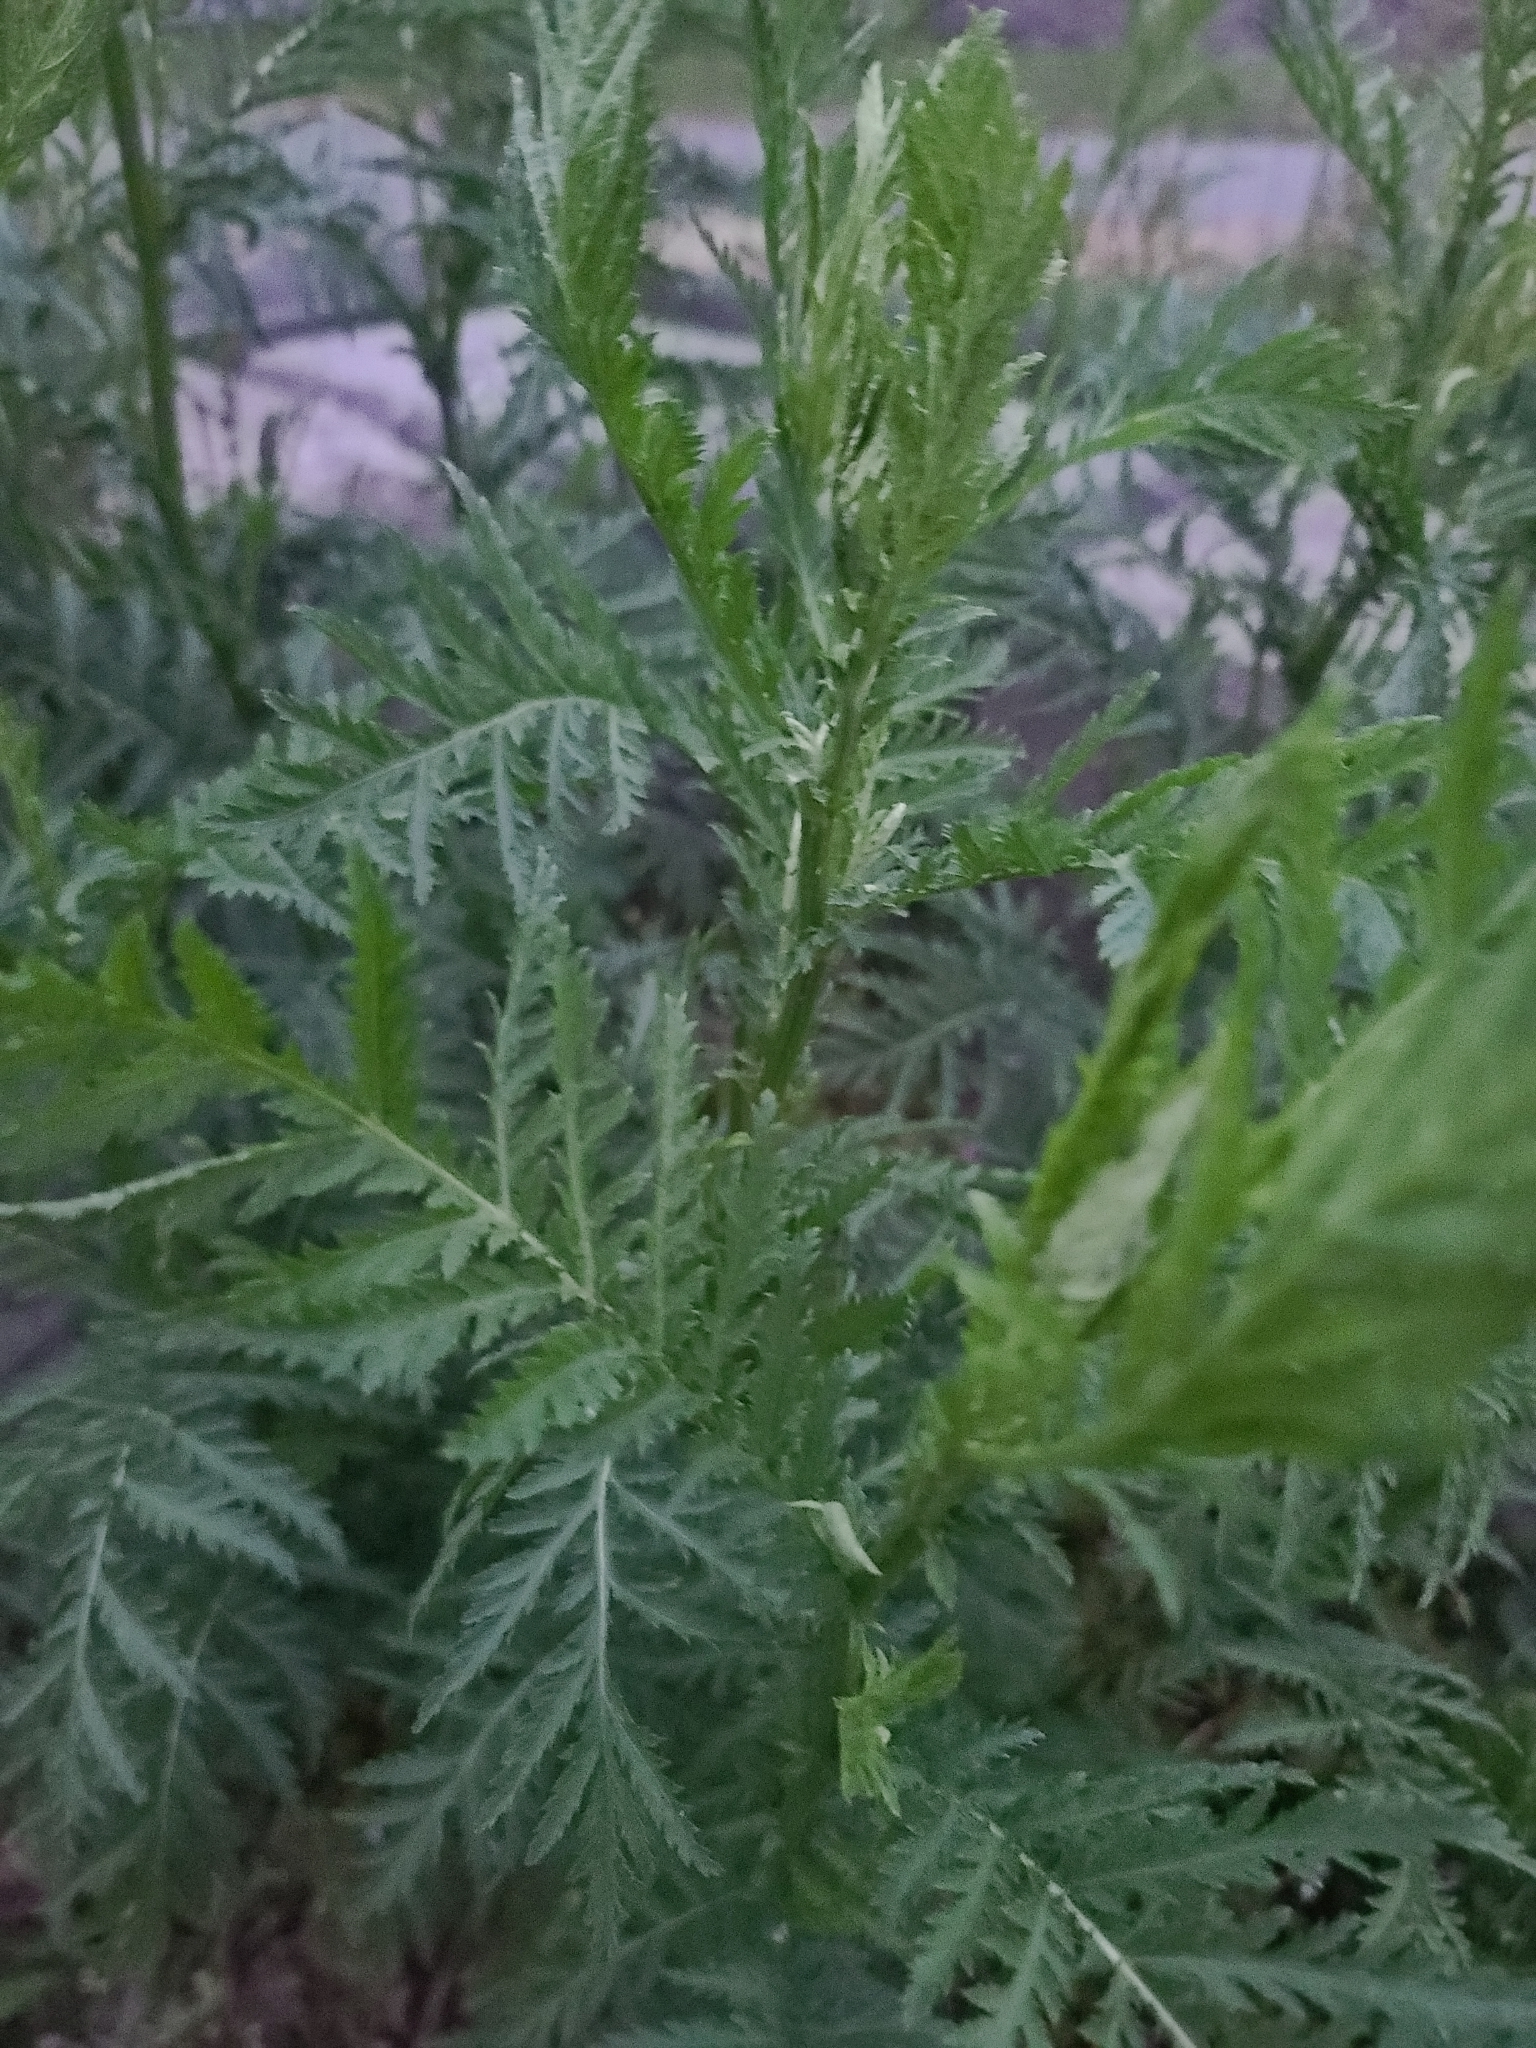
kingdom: Plantae
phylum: Tracheophyta
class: Magnoliopsida
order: Asterales
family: Asteraceae
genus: Tanacetum
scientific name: Tanacetum vulgare
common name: Common tansy
